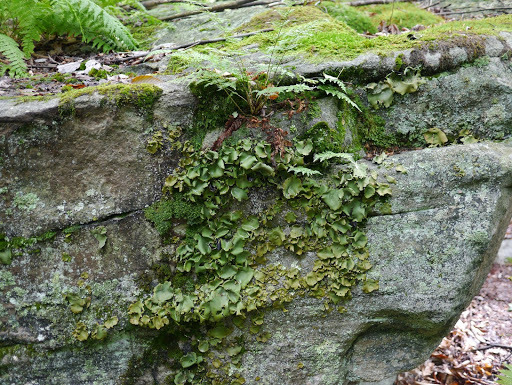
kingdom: Fungi
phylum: Ascomycota
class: Lecanoromycetes
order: Umbilicariales
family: Umbilicariaceae
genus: Umbilicaria
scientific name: Umbilicaria mammulata
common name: Smooth rock tripe
